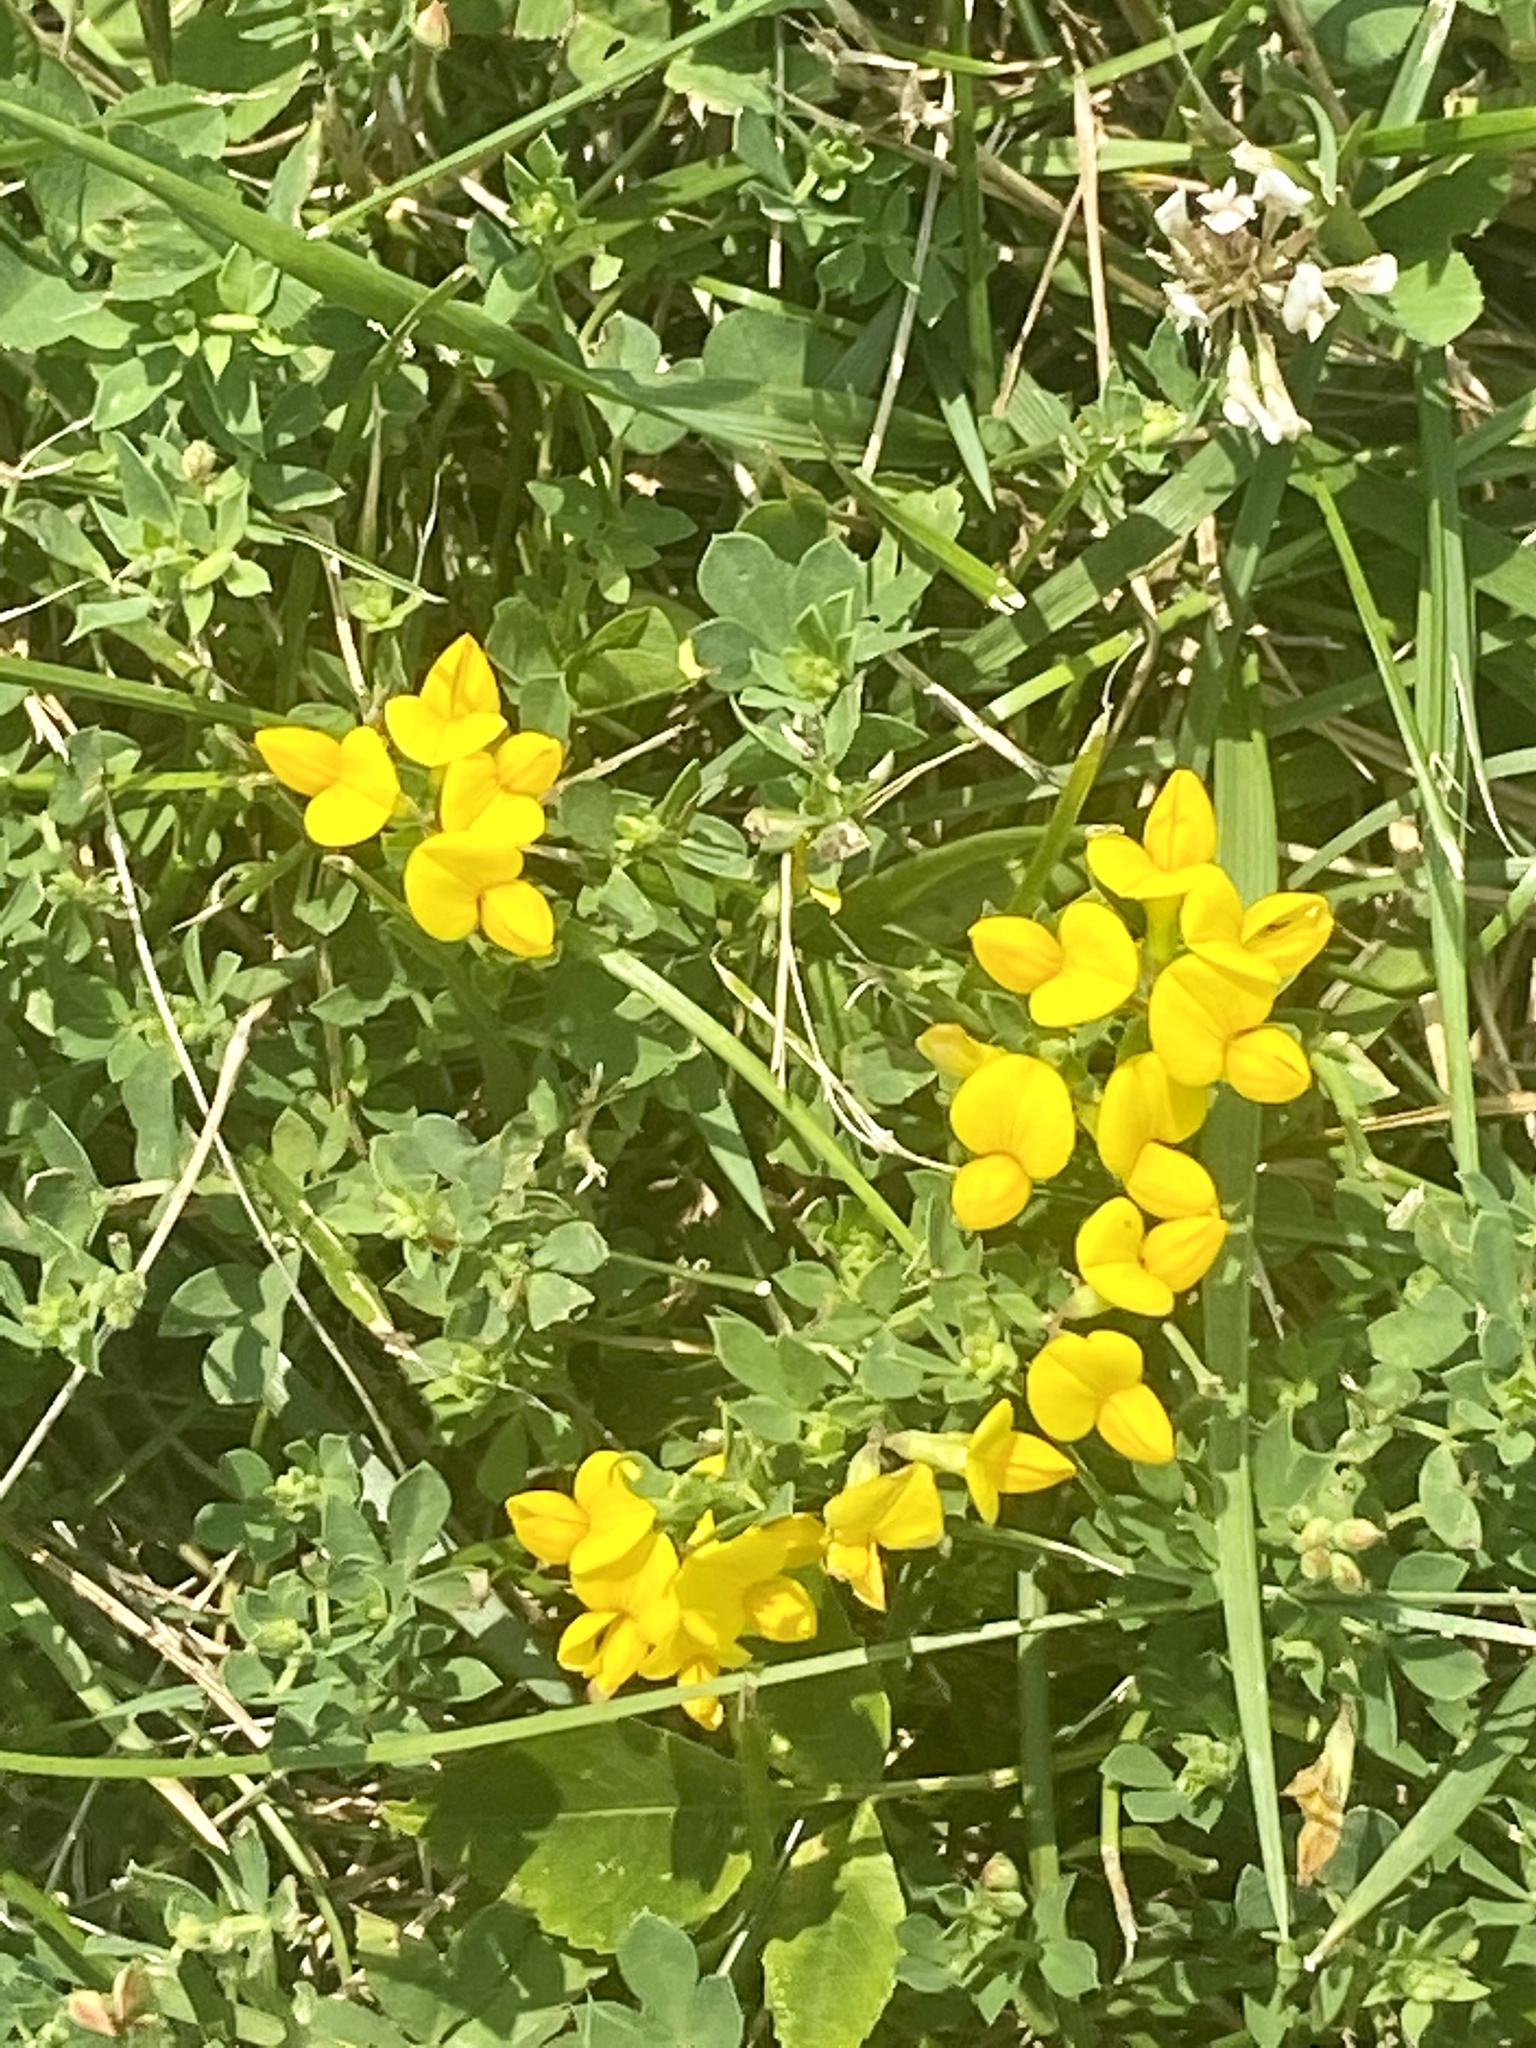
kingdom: Plantae
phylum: Tracheophyta
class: Magnoliopsida
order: Fabales
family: Fabaceae
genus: Lotus
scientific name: Lotus corniculatus
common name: Common bird's-foot-trefoil
